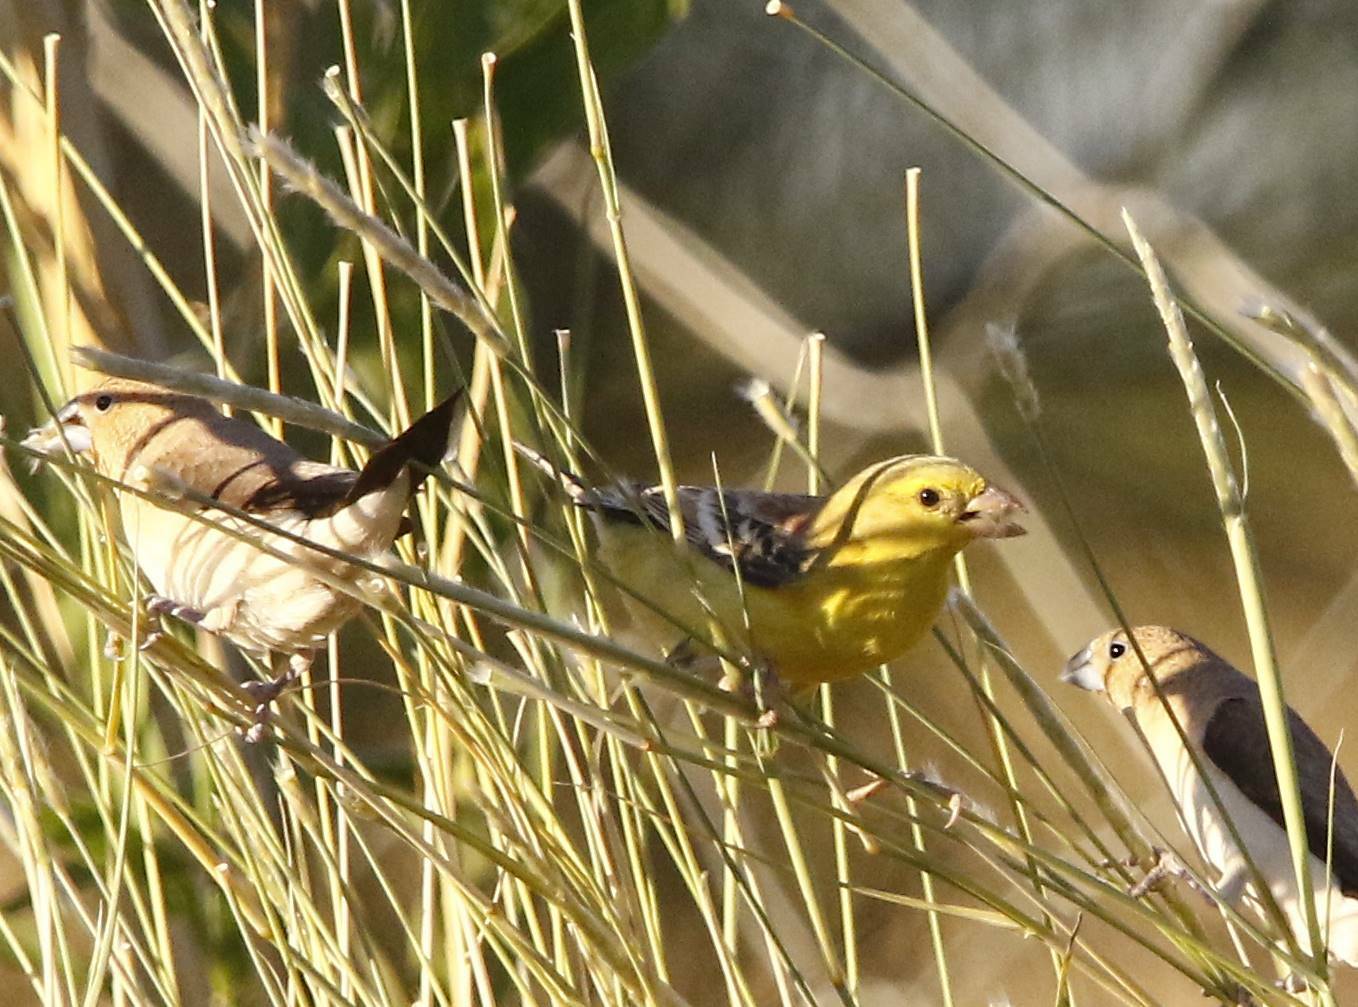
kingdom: Animalia
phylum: Chordata
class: Aves
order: Passeriformes
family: Passeridae
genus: Passer
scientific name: Passer luteus
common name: Sudan golden sparrow
